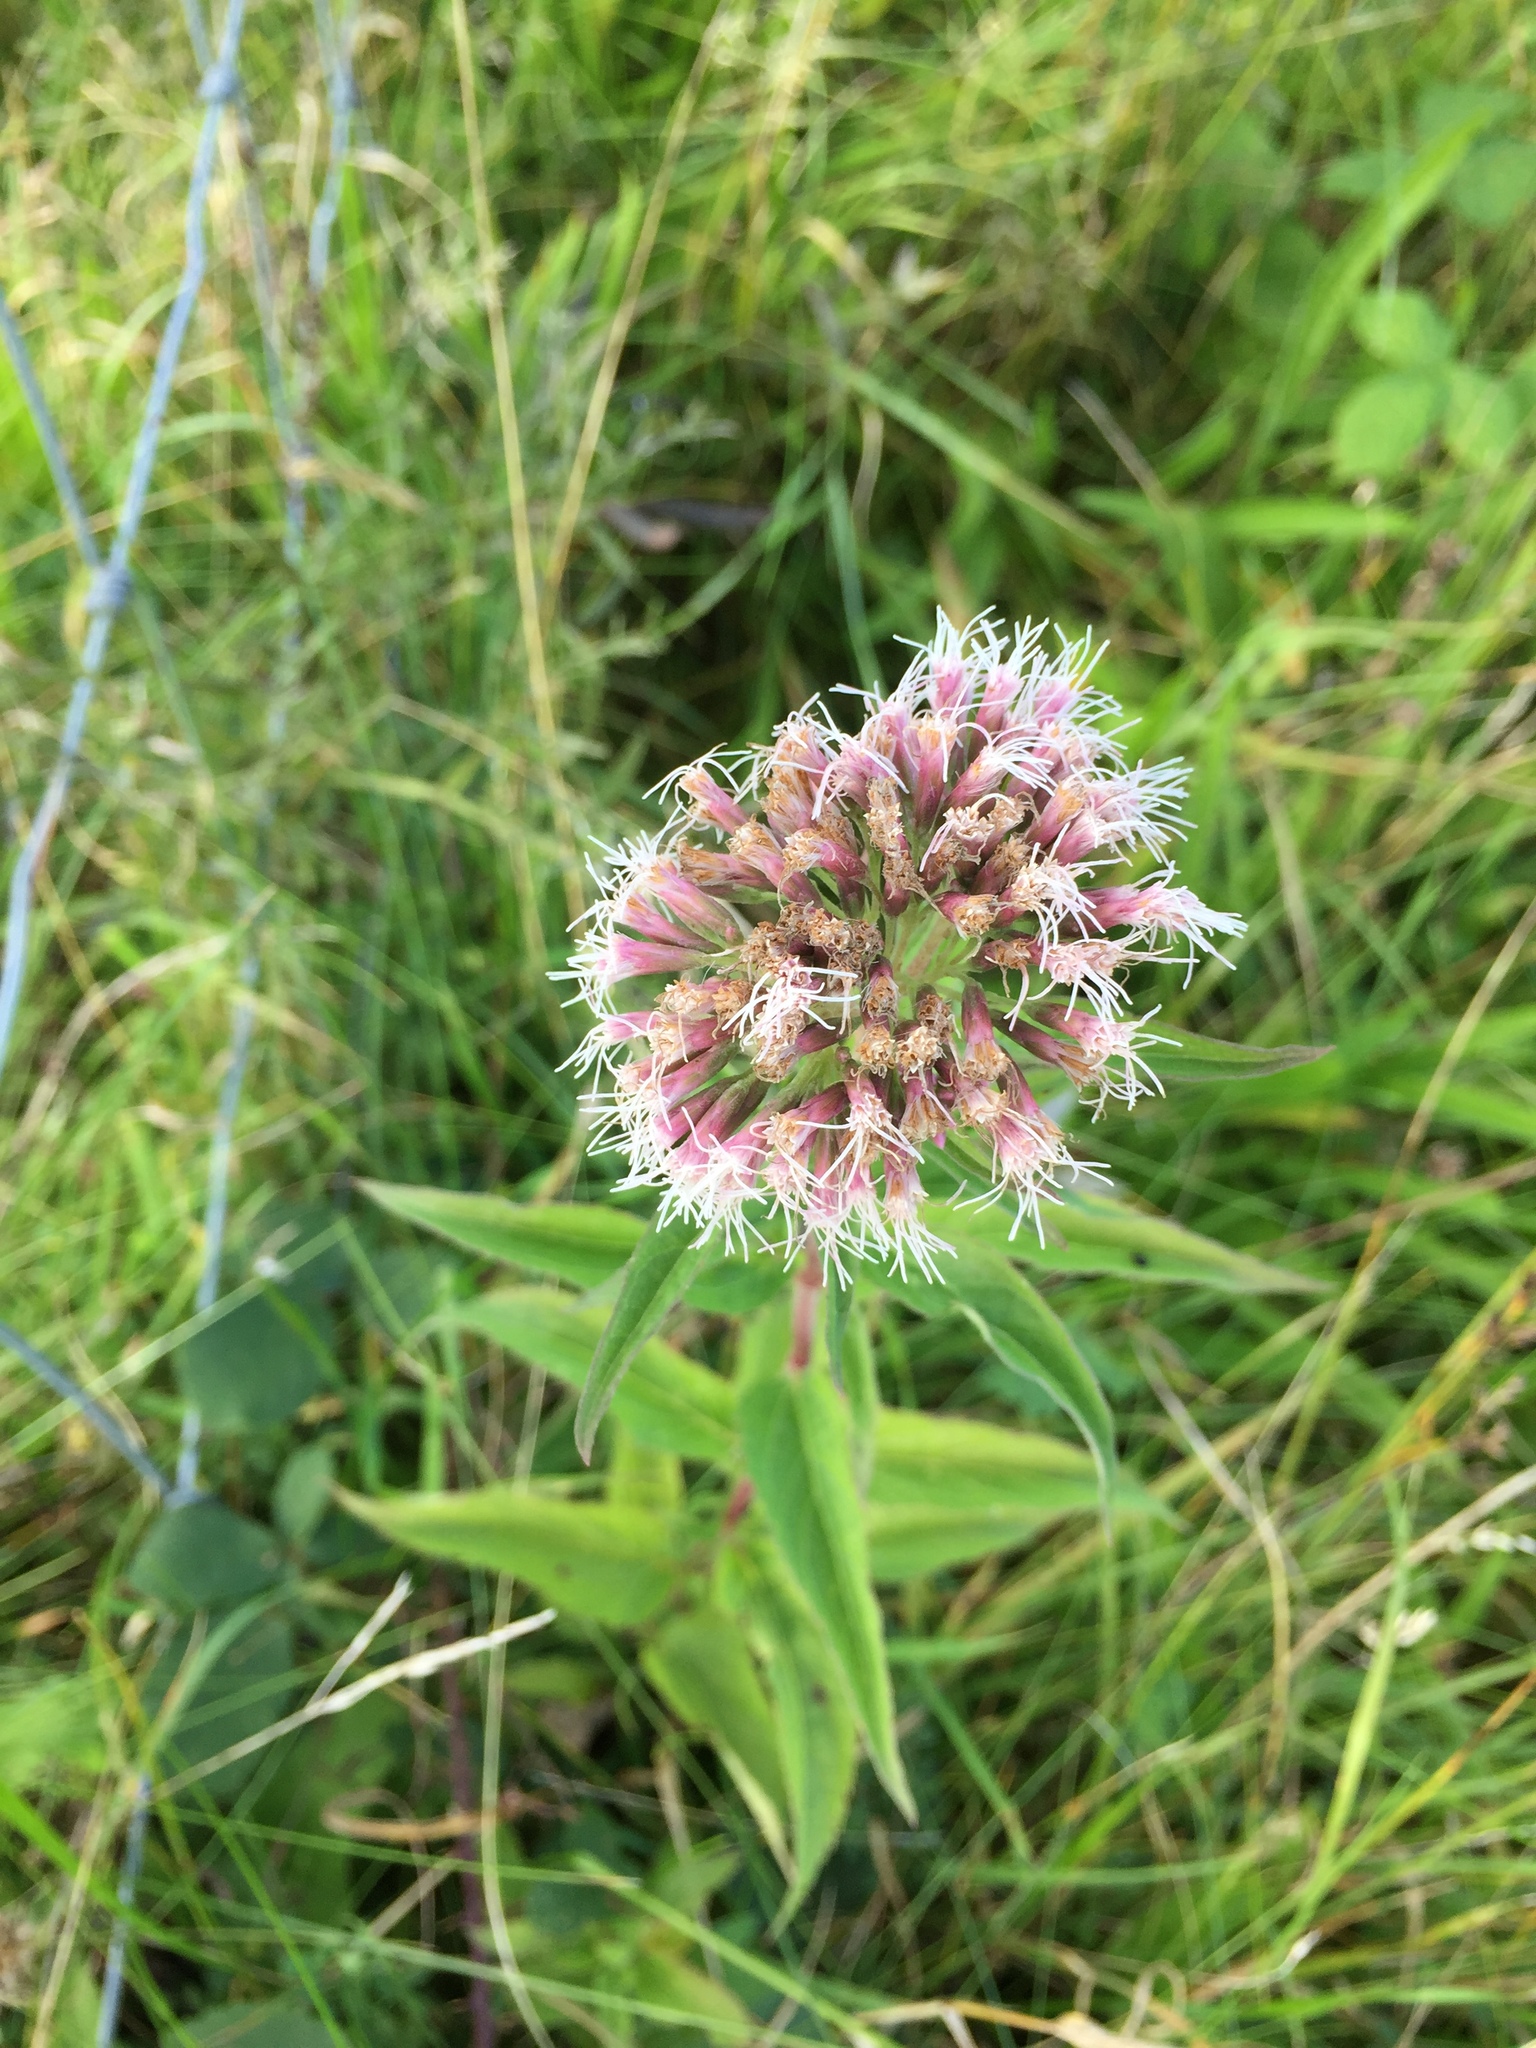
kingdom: Plantae
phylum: Tracheophyta
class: Magnoliopsida
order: Asterales
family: Asteraceae
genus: Eupatorium
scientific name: Eupatorium cannabinum
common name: Hemp-agrimony
